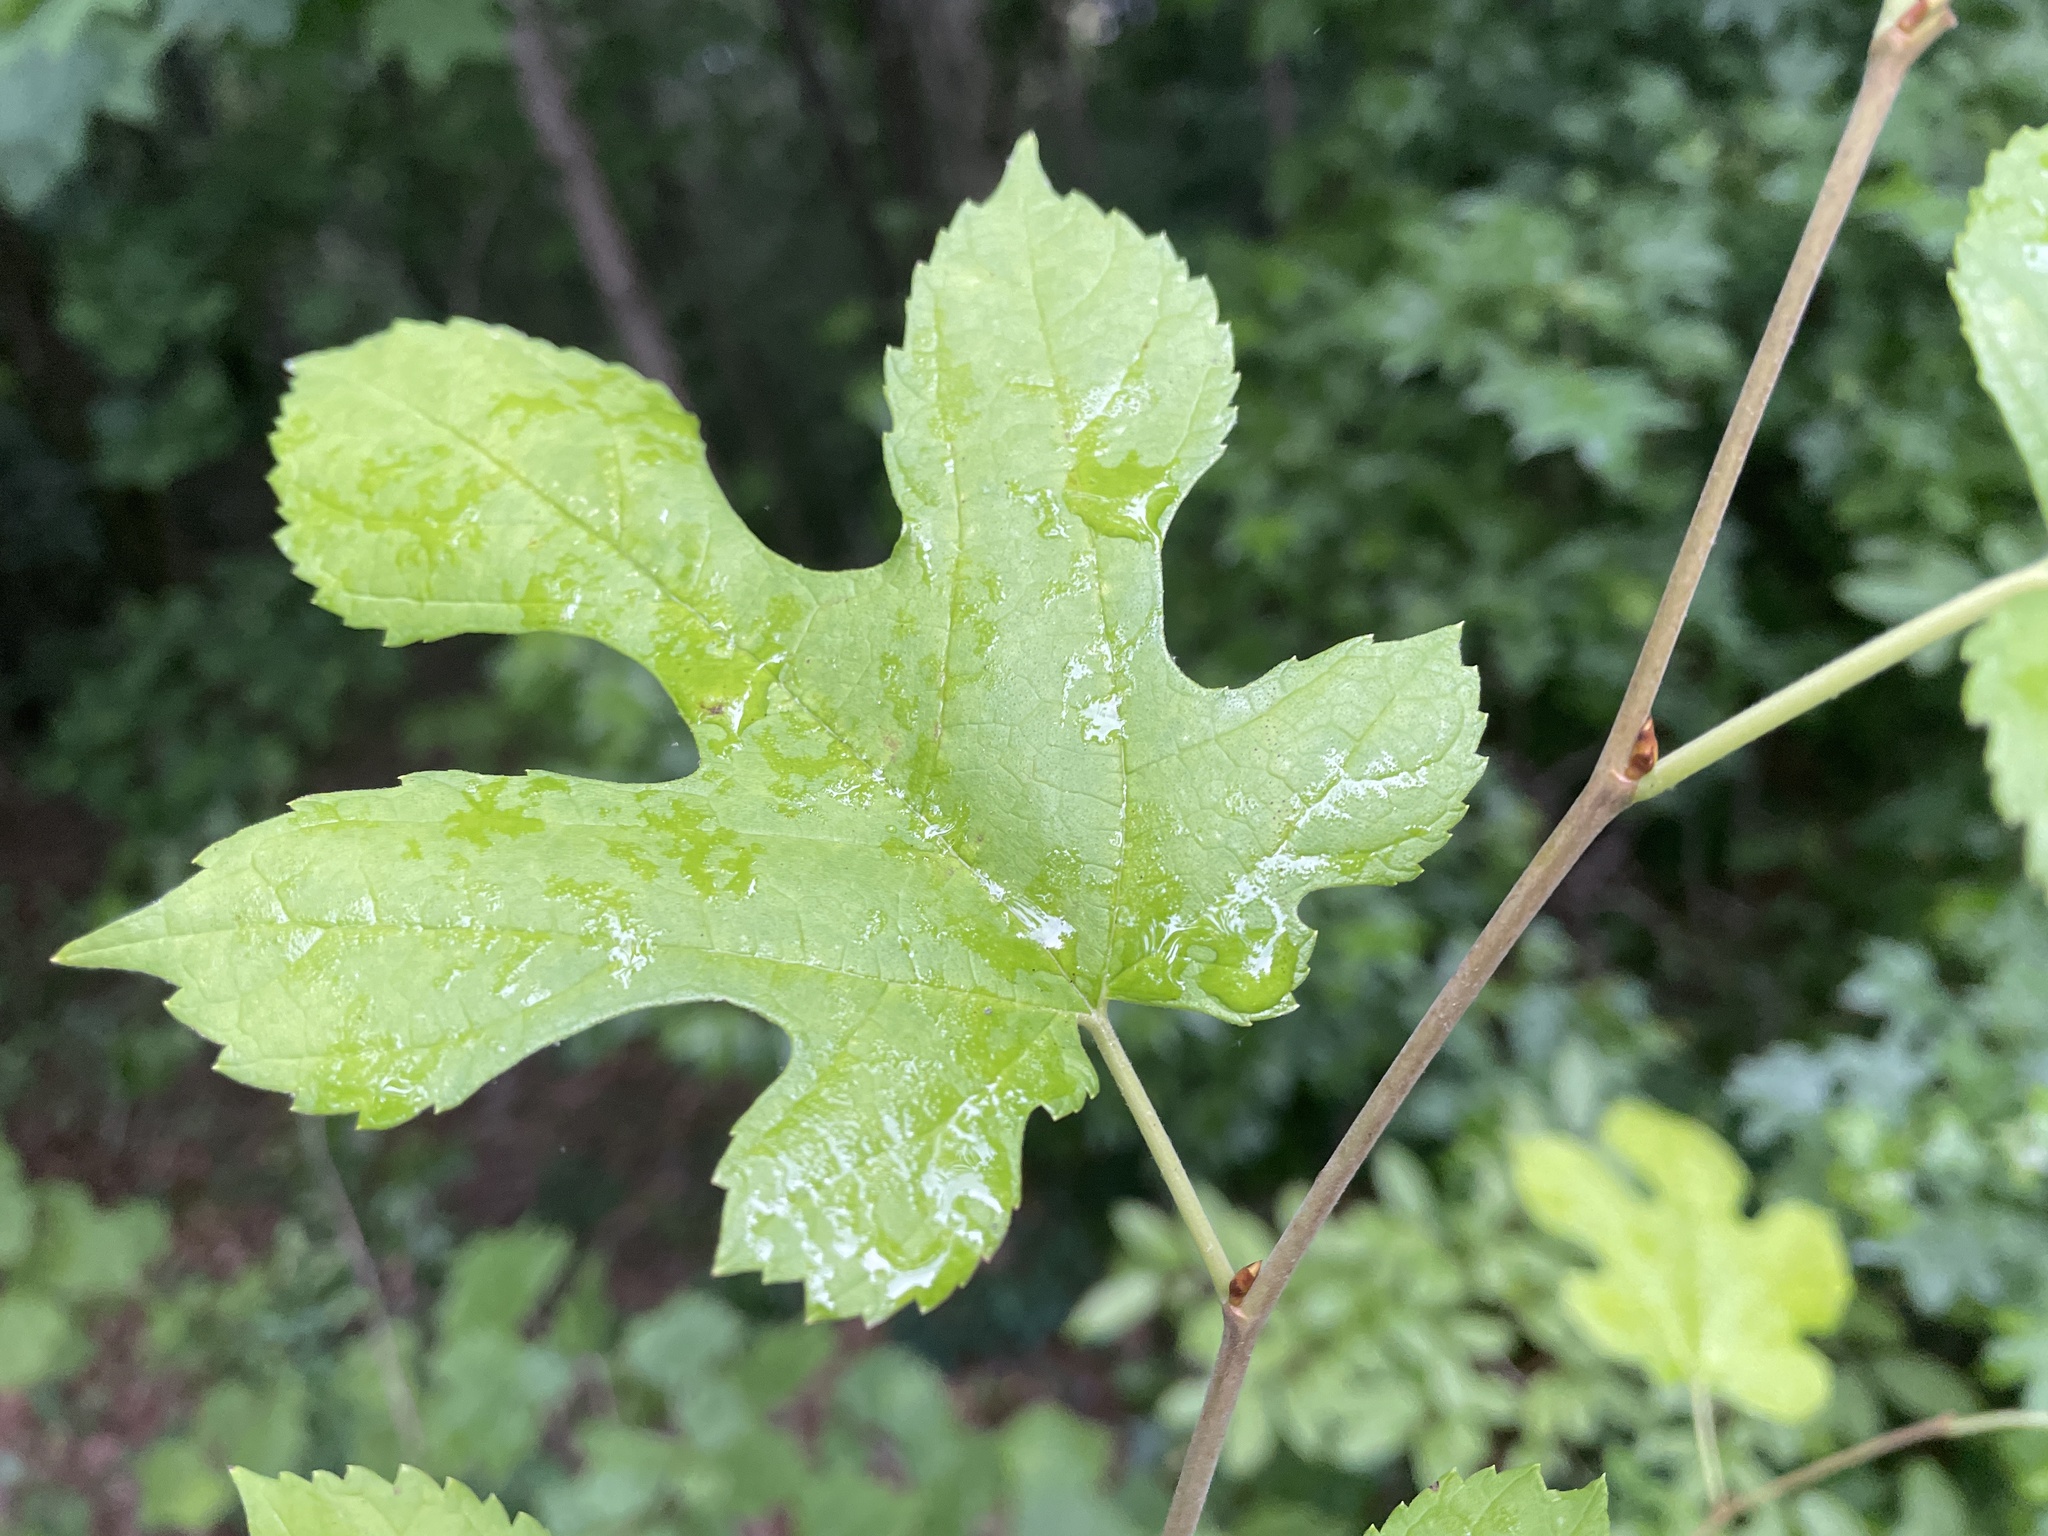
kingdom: Plantae
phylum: Tracheophyta
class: Magnoliopsida
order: Rosales
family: Moraceae
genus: Morus
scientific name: Morus alba
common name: White mulberry
